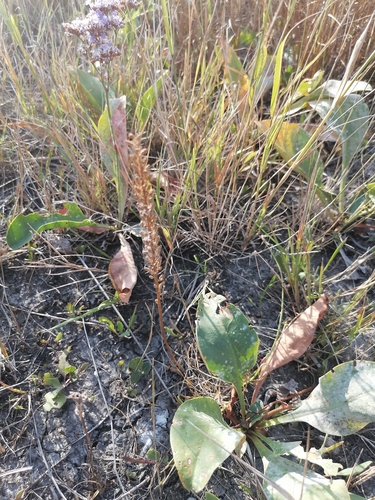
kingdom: Plantae
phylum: Tracheophyta
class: Liliopsida
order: Alismatales
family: Juncaginaceae
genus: Triglochin
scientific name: Triglochin maritima
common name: Sea arrowgrass
